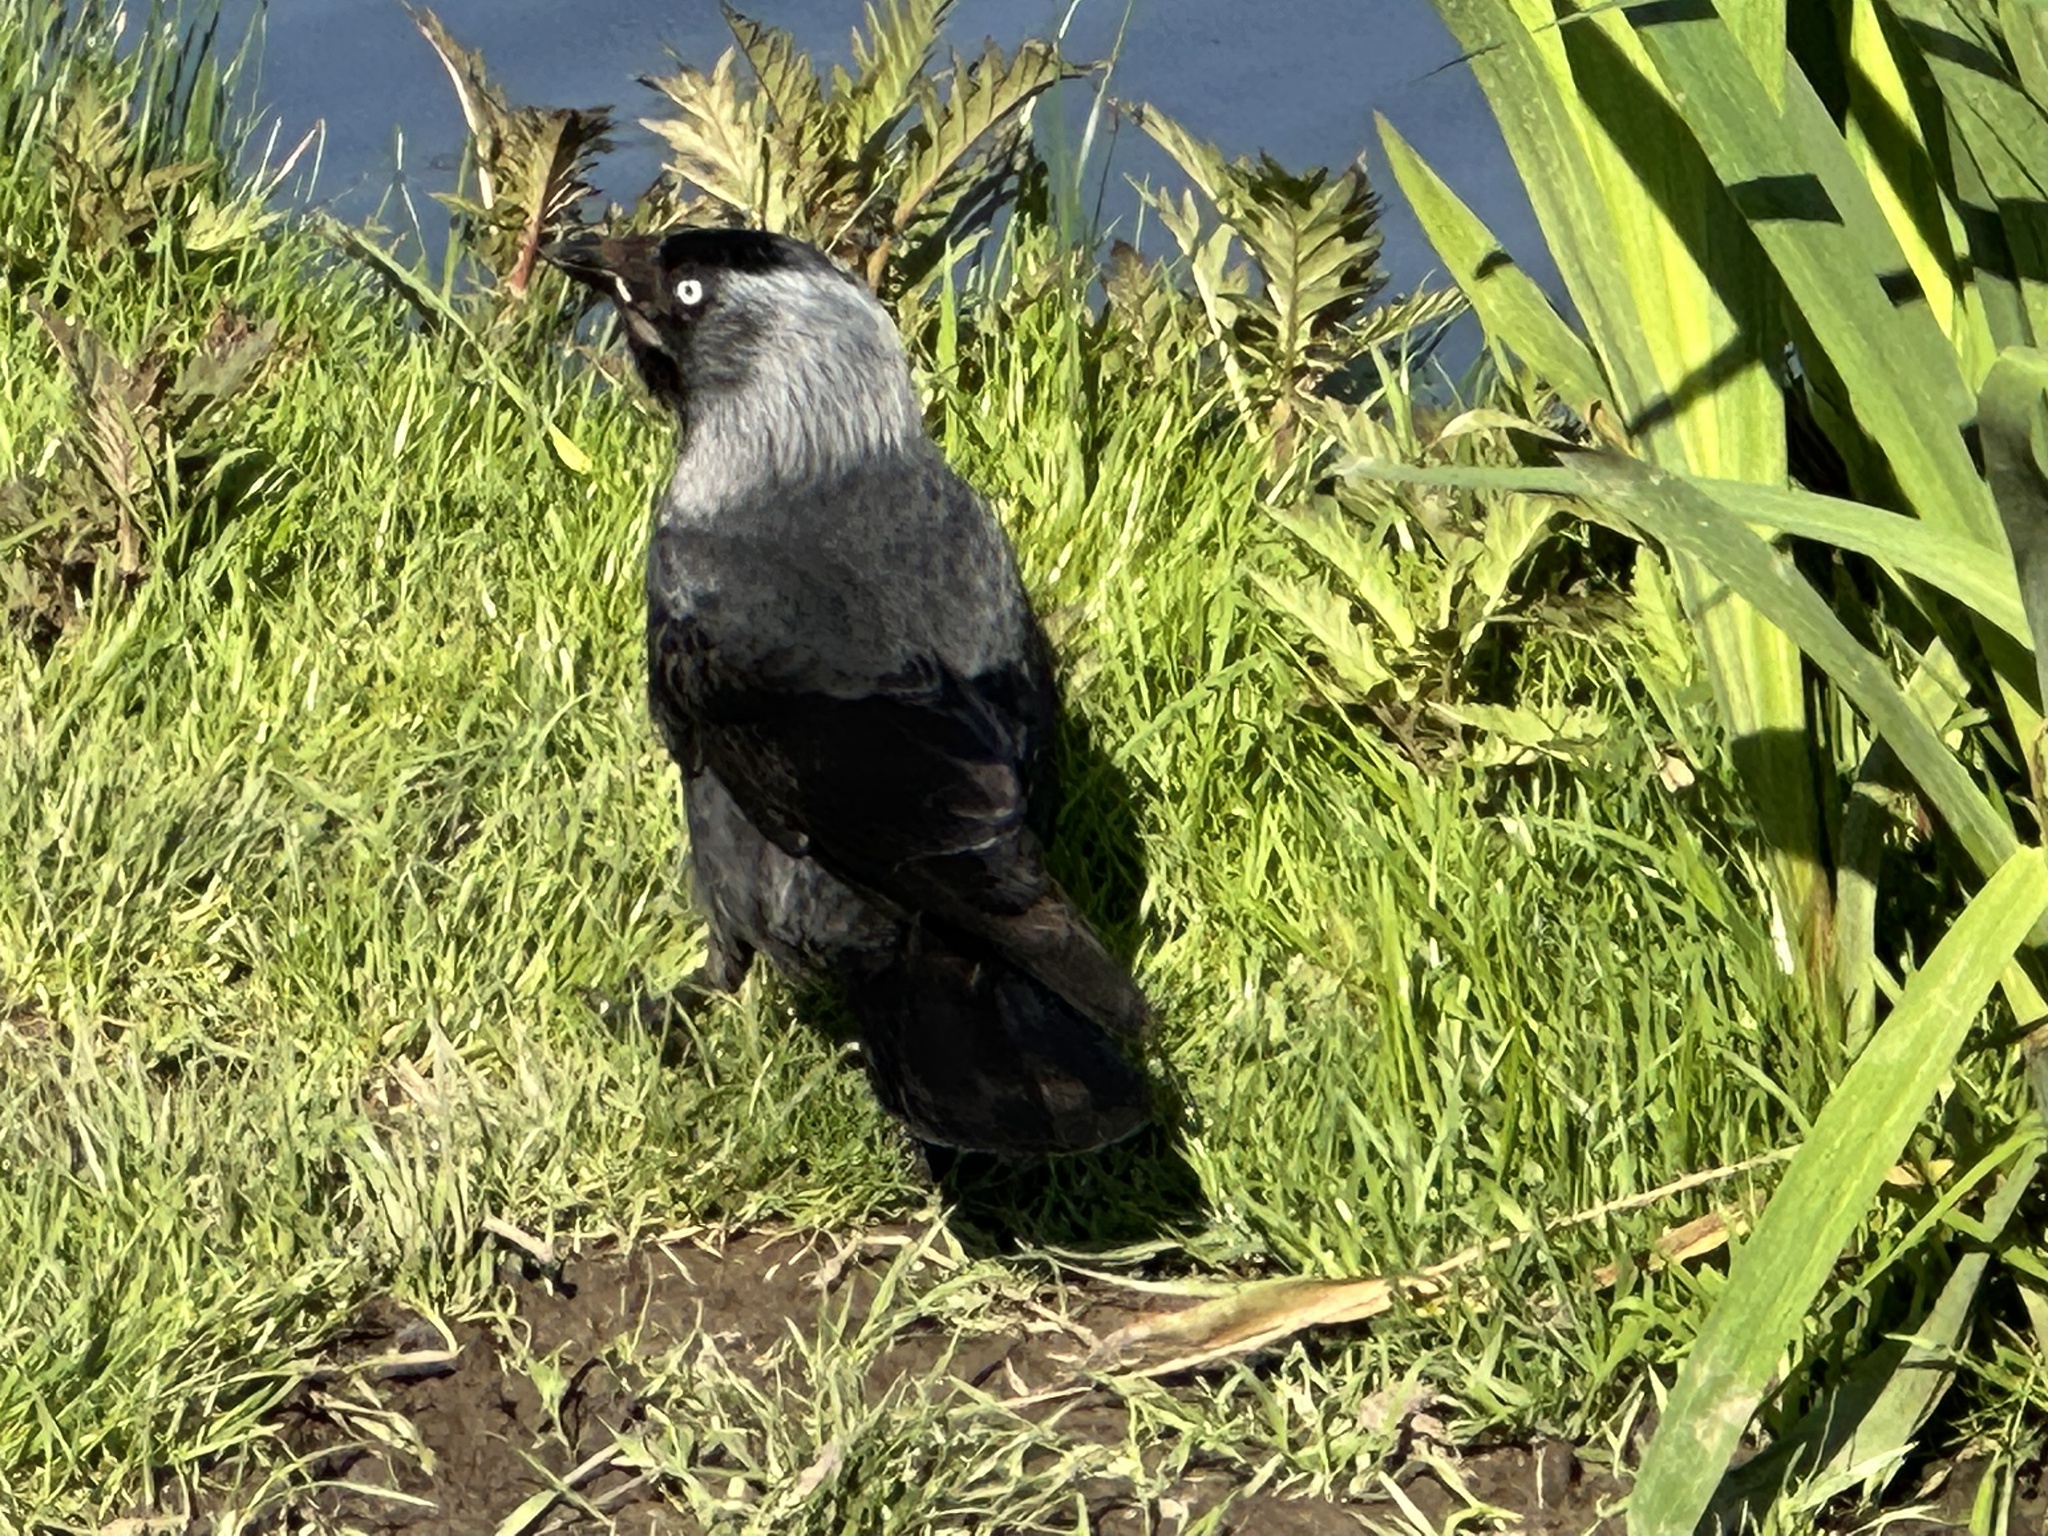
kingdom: Animalia
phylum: Chordata
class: Aves
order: Passeriformes
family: Corvidae
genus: Coloeus
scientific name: Coloeus monedula
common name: Western jackdaw
